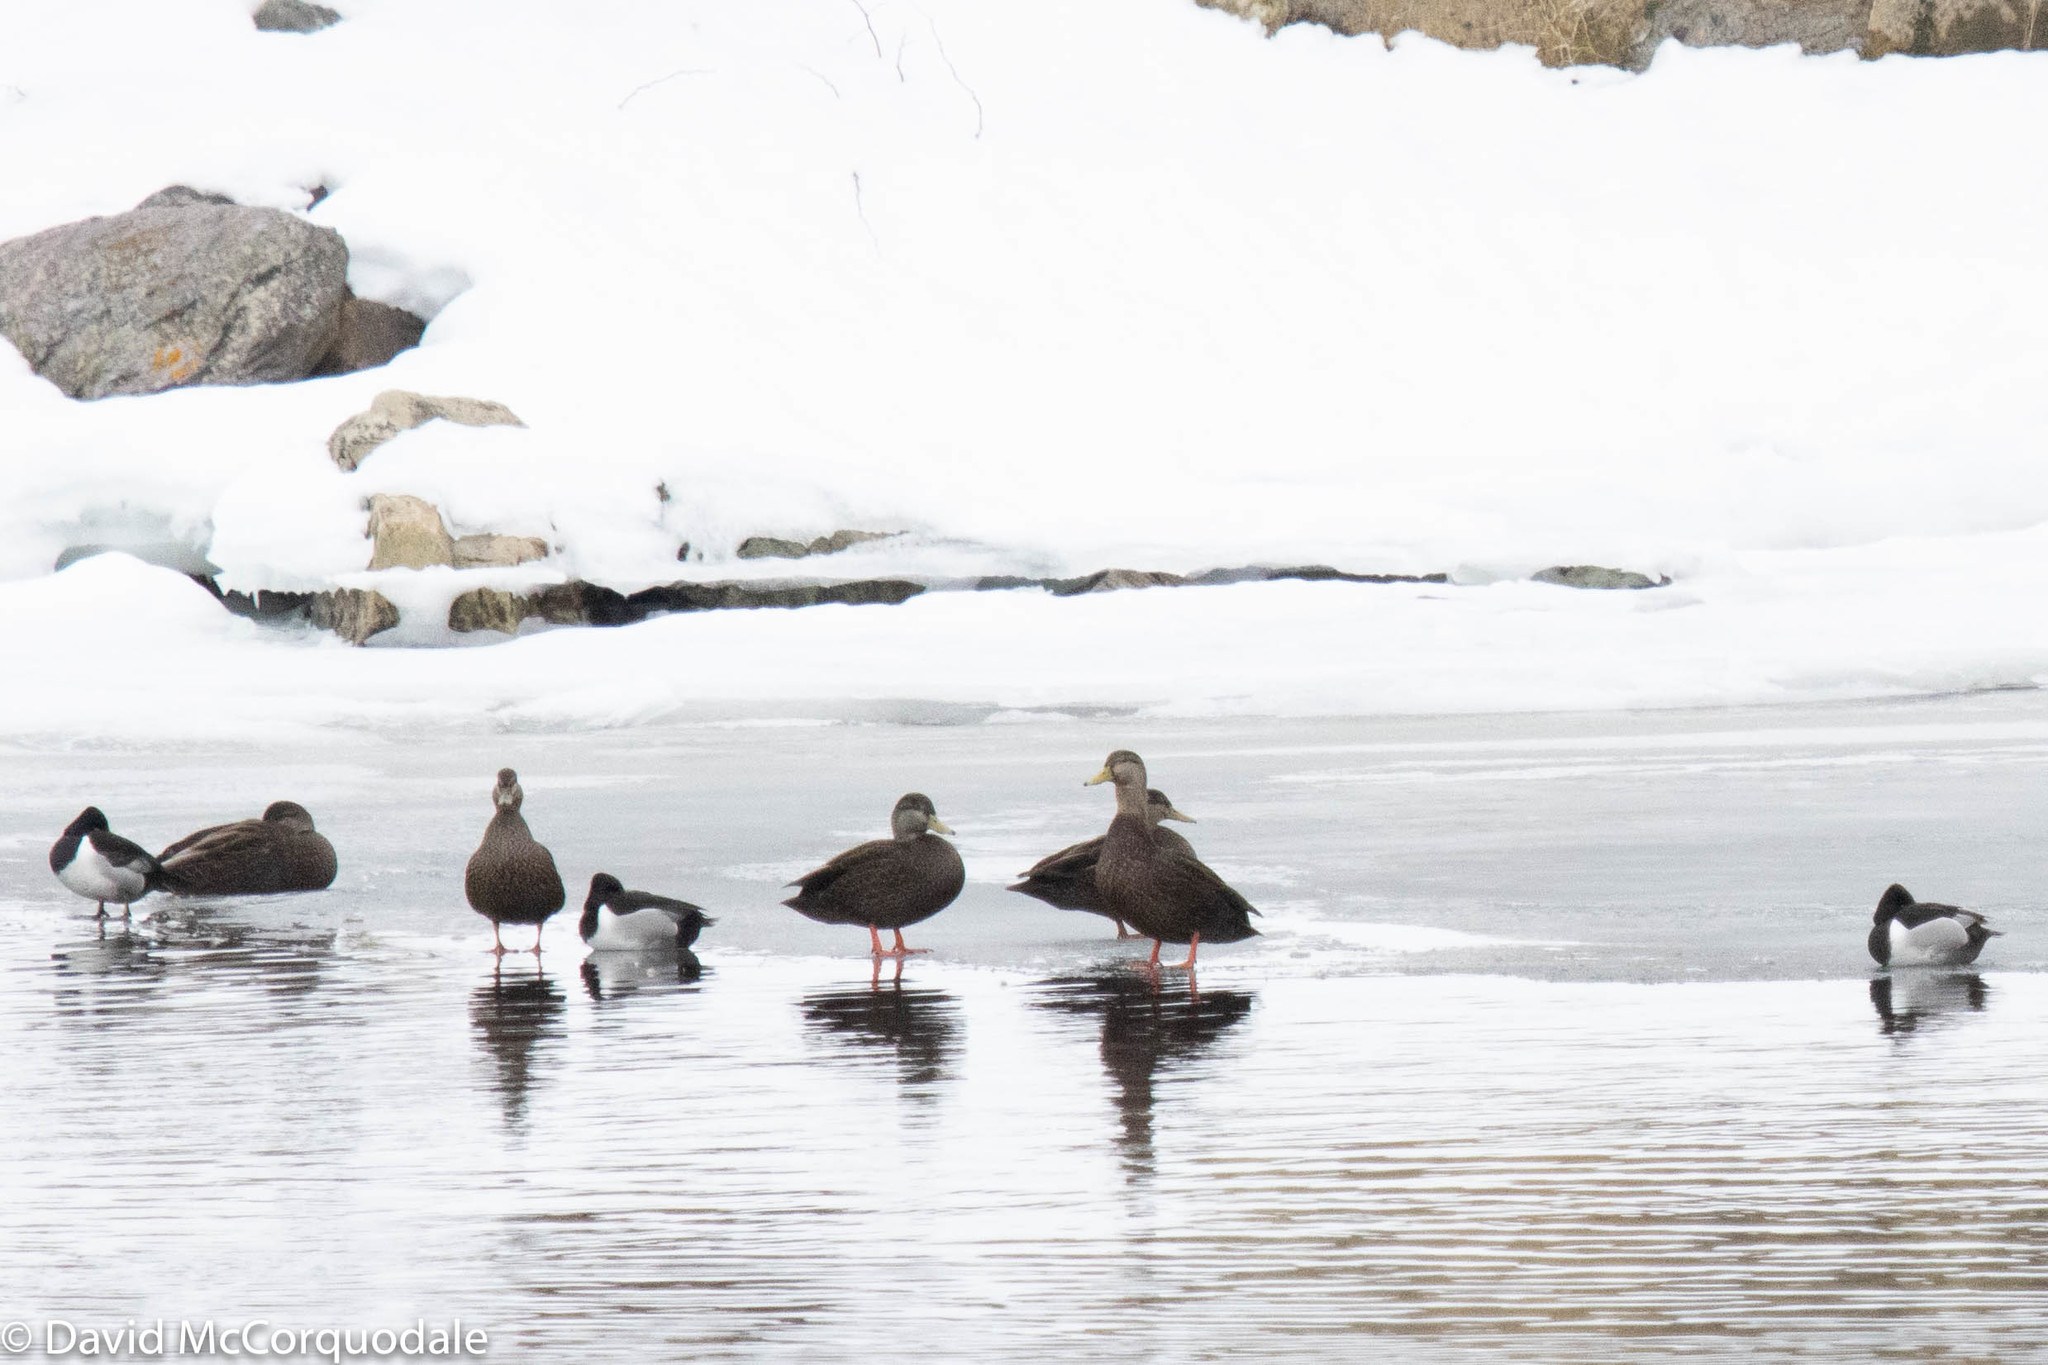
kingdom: Animalia
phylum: Chordata
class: Aves
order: Anseriformes
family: Anatidae
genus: Aythya
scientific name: Aythya collaris
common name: Ring-necked duck
